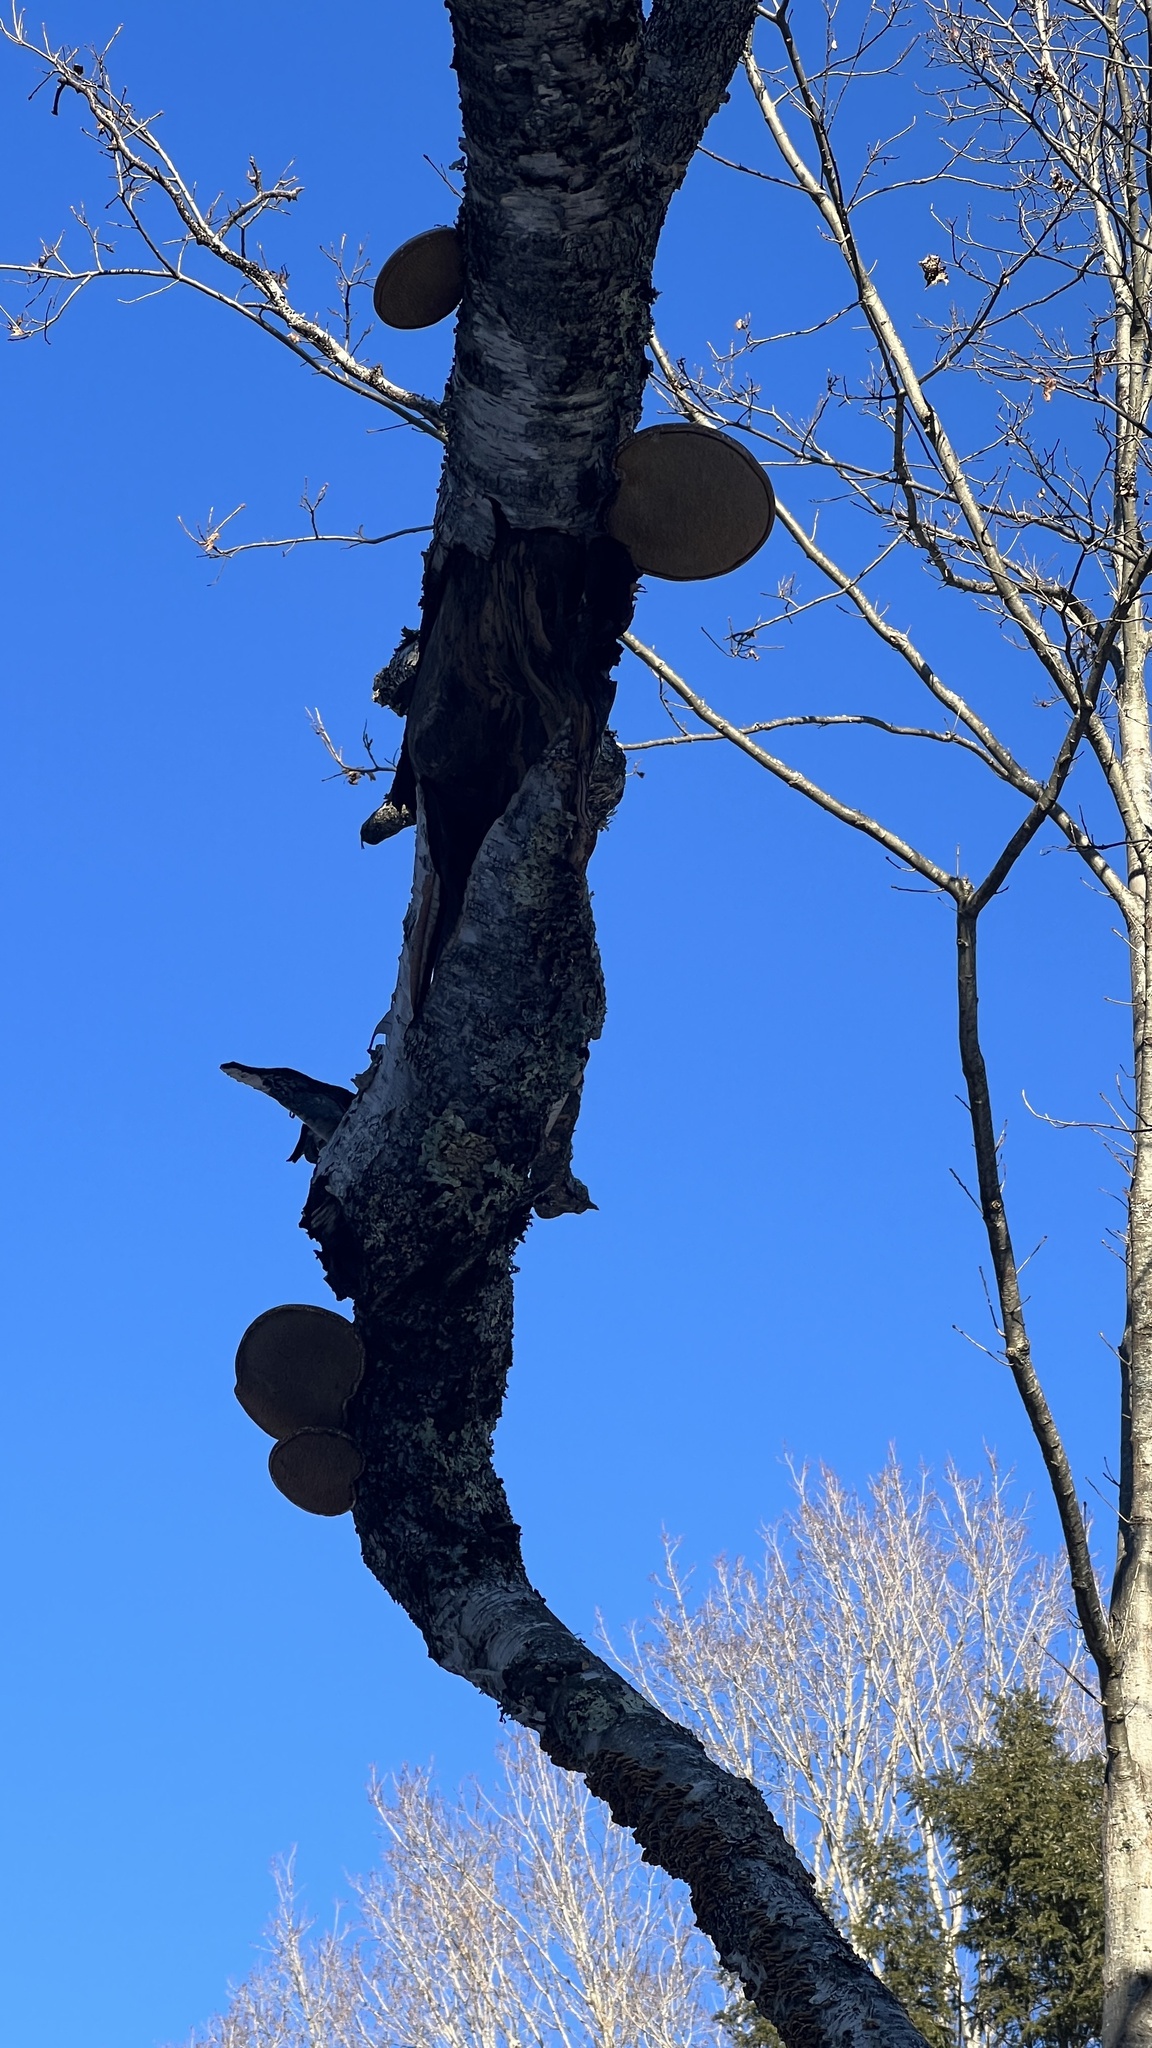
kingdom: Fungi
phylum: Basidiomycota
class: Agaricomycetes
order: Polyporales
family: Fomitopsidaceae
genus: Fomitopsis
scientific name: Fomitopsis betulina
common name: Birch polypore
